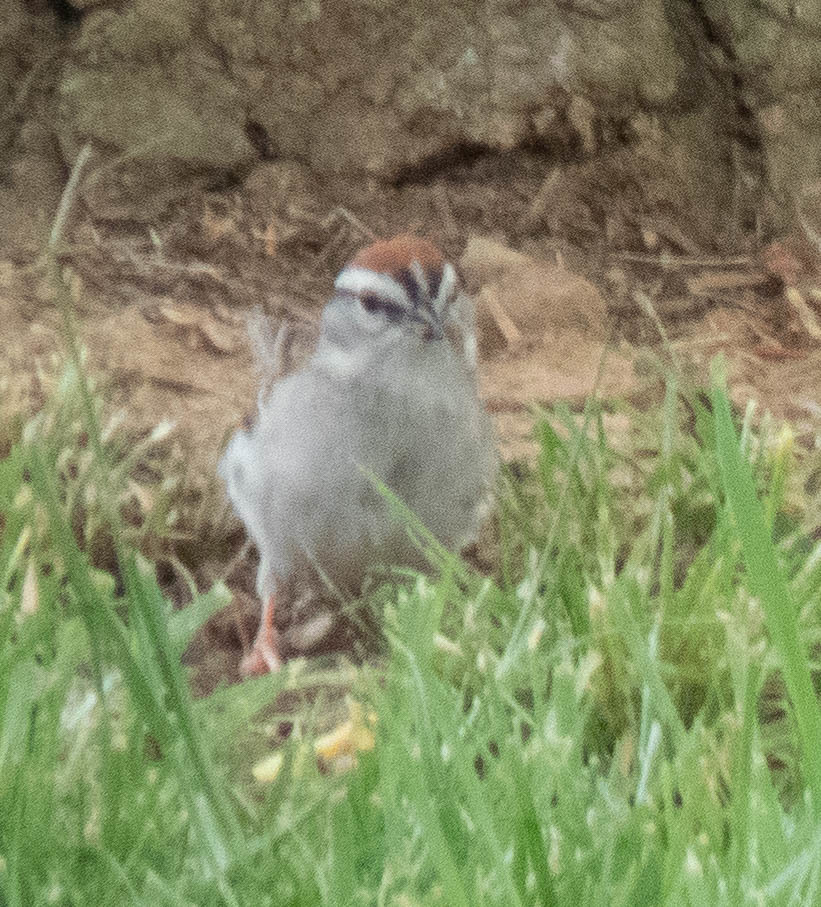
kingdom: Animalia
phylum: Chordata
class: Aves
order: Passeriformes
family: Passerellidae
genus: Spizella
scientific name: Spizella passerina
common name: Chipping sparrow
